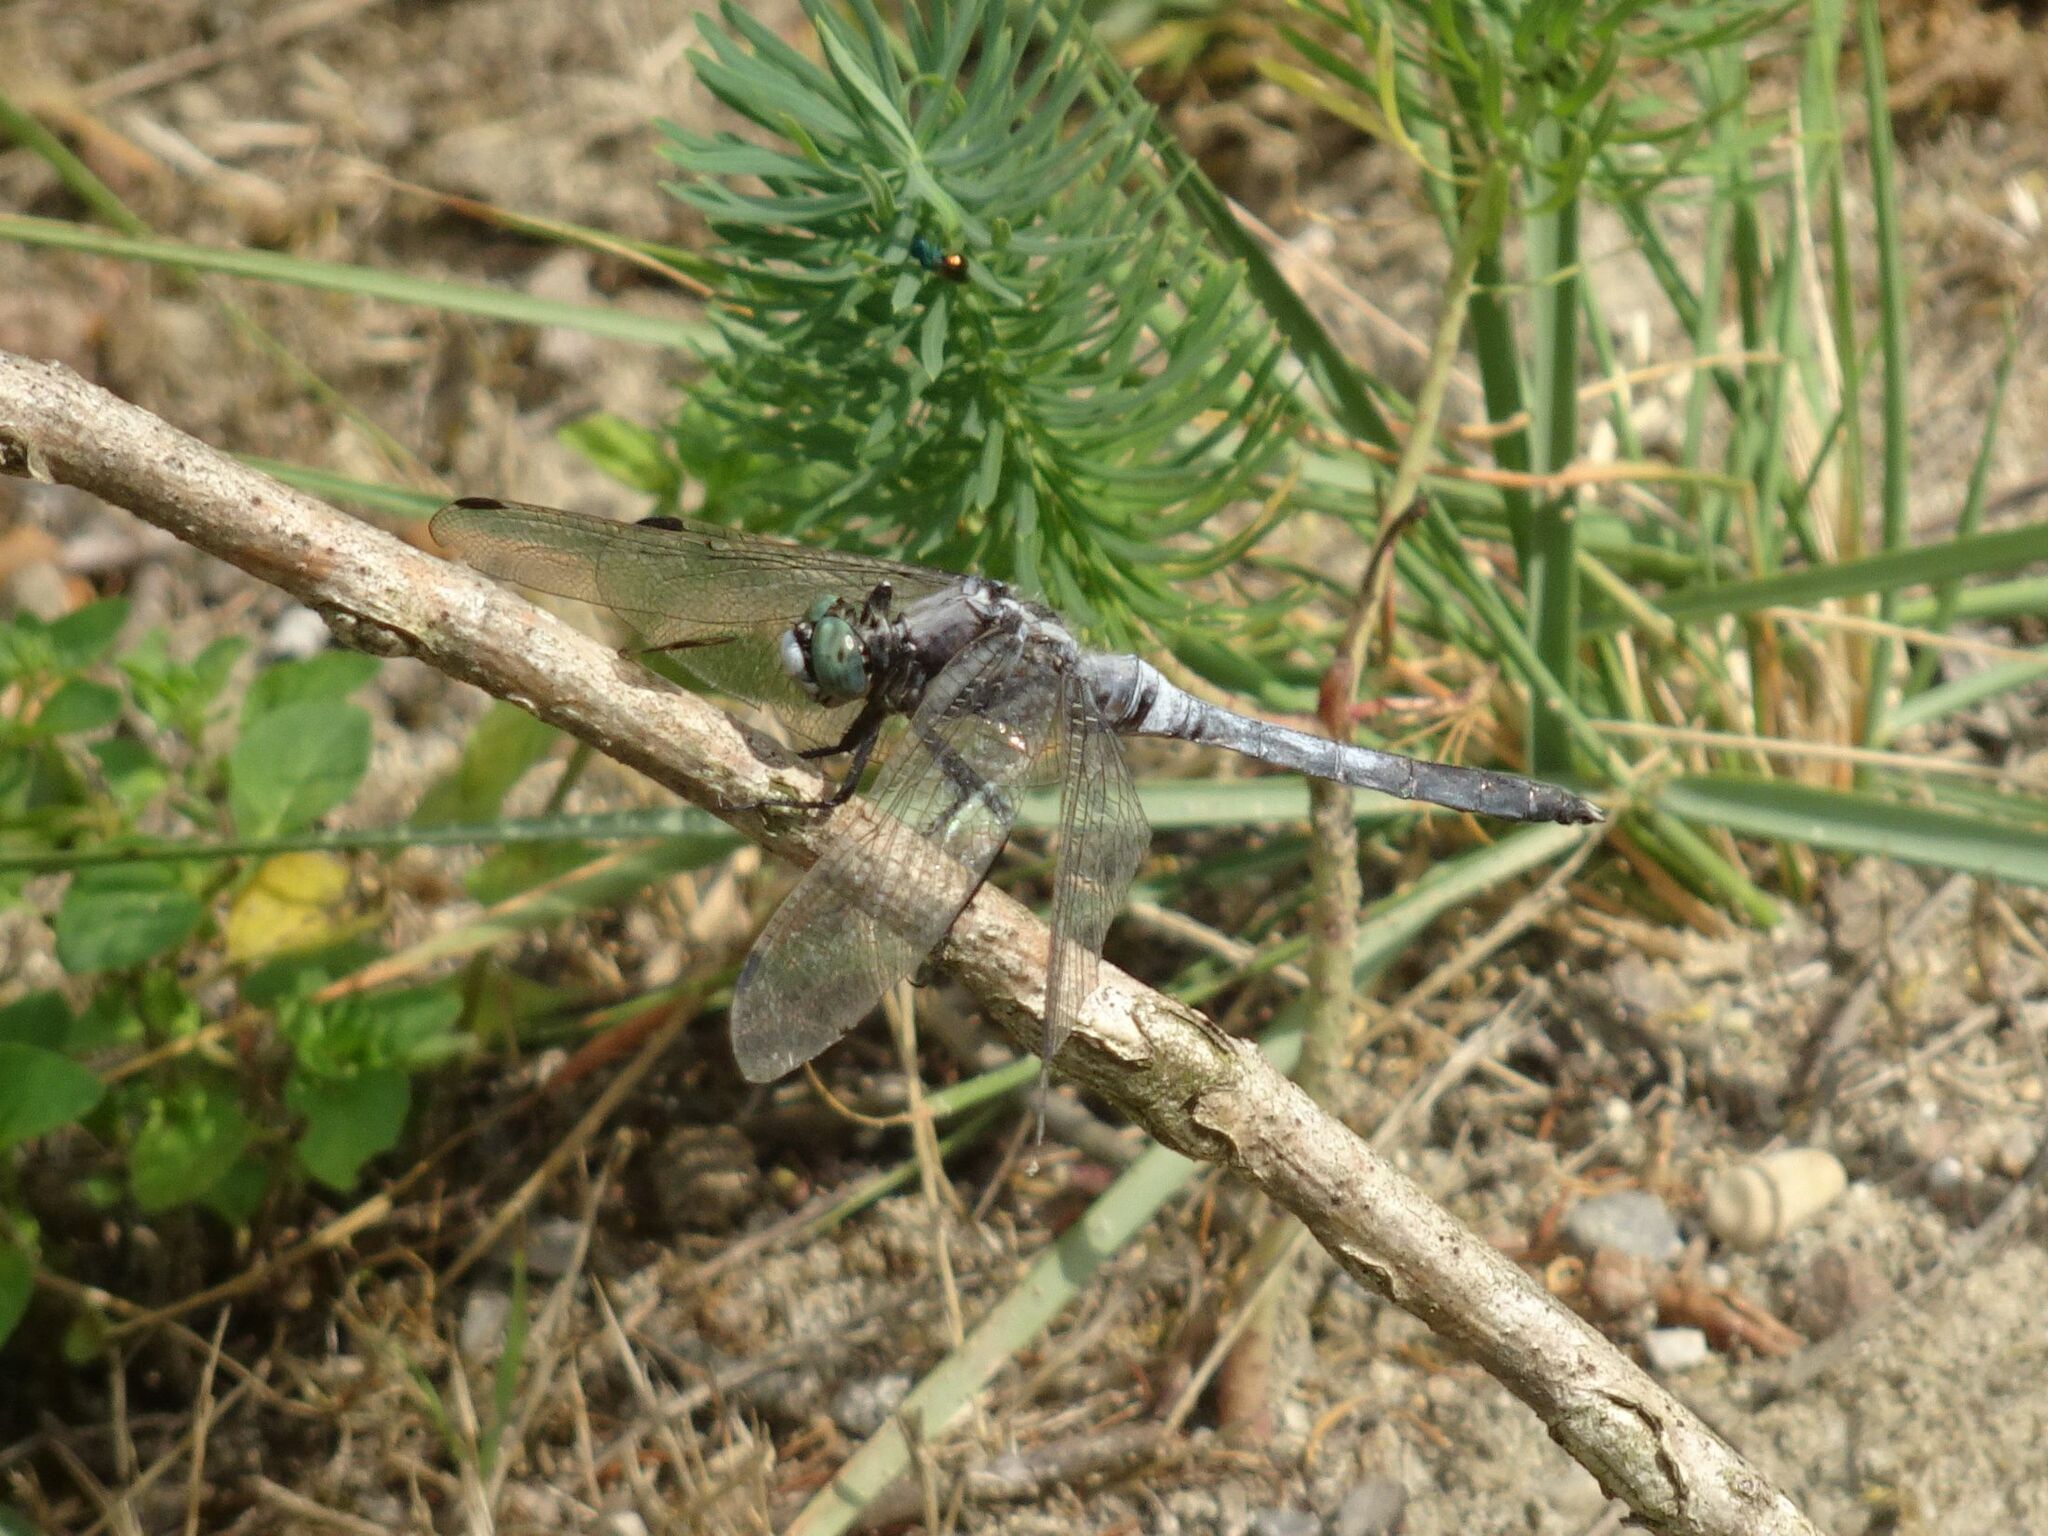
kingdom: Animalia
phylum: Arthropoda
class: Insecta
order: Odonata
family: Libellulidae
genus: Orthetrum
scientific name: Orthetrum albistylum
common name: White-tailed skimmer
